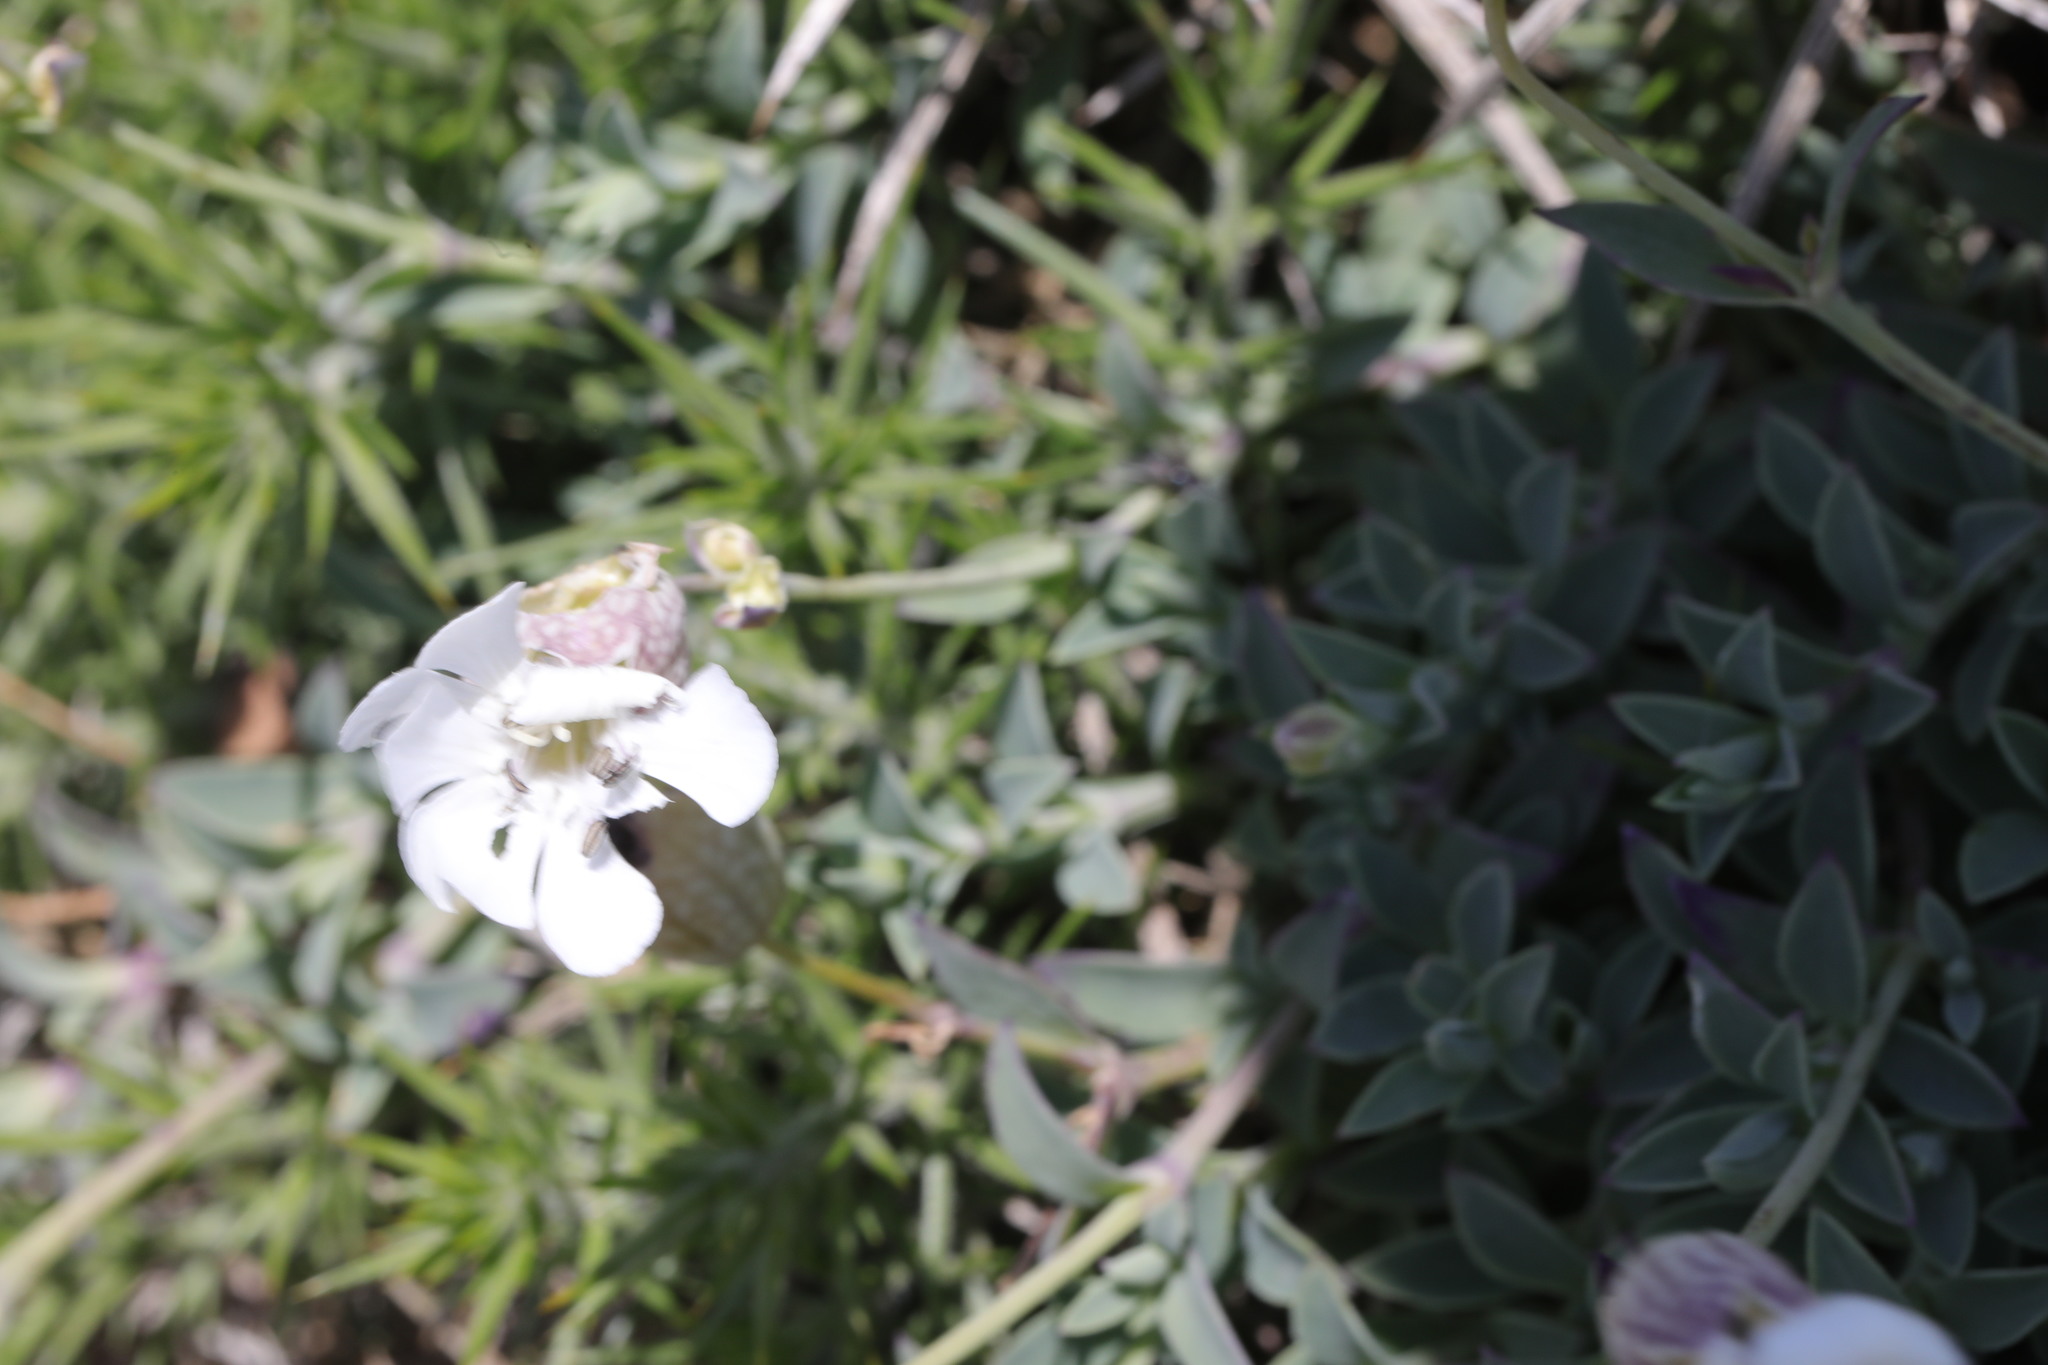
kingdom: Plantae
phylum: Tracheophyta
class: Magnoliopsida
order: Caryophyllales
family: Caryophyllaceae
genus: Silene
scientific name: Silene uniflora
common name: Sea campion
